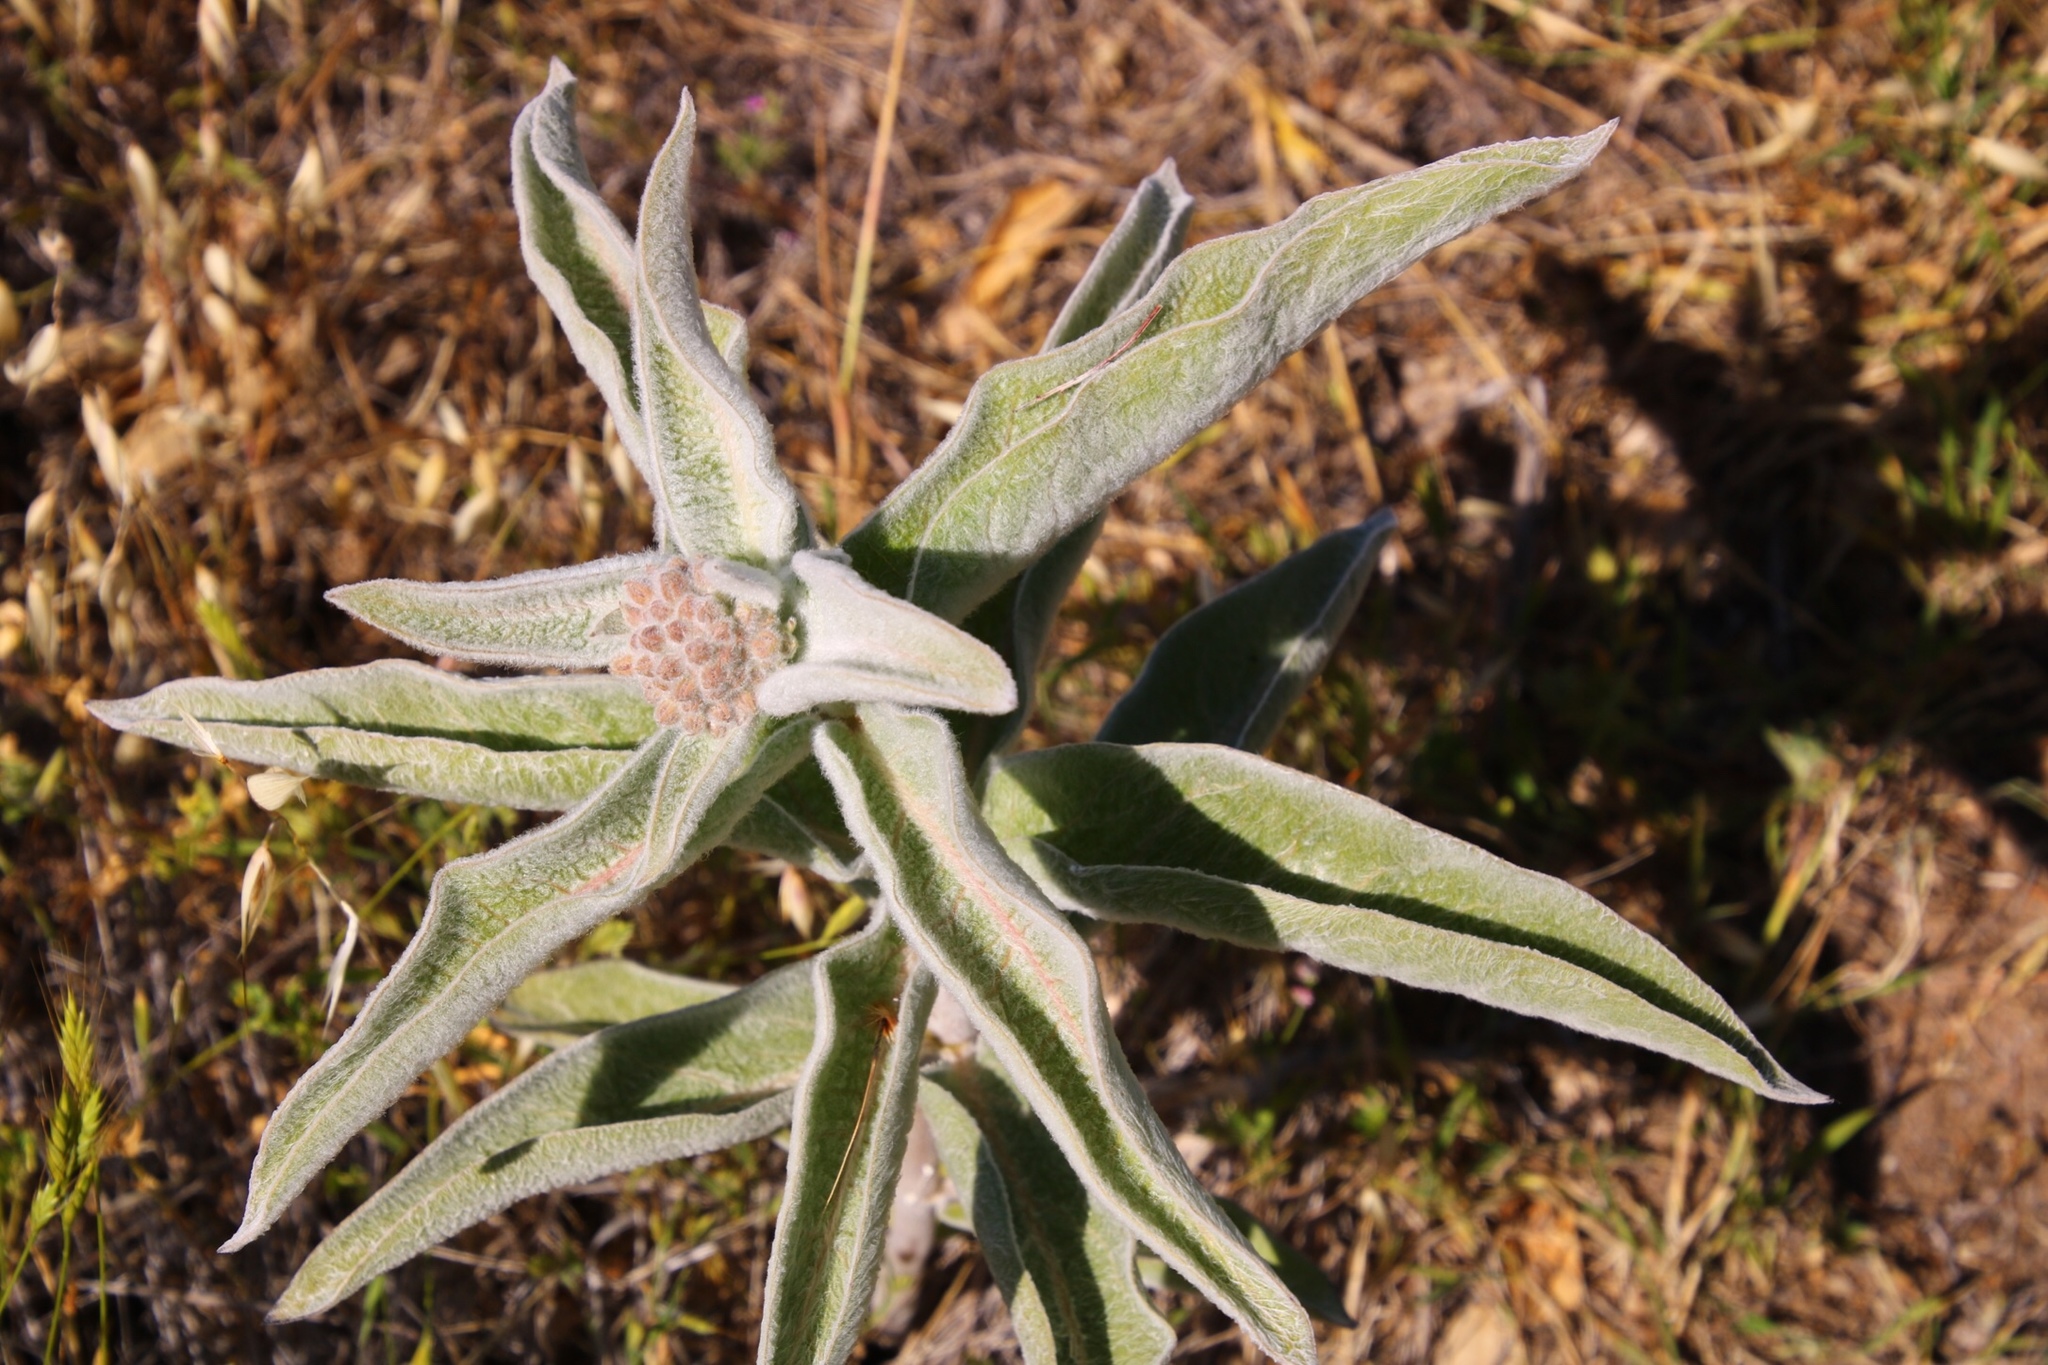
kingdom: Plantae
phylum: Tracheophyta
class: Magnoliopsida
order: Gentianales
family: Apocynaceae
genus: Asclepias
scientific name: Asclepias eriocarpa
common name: Indian milkweed
